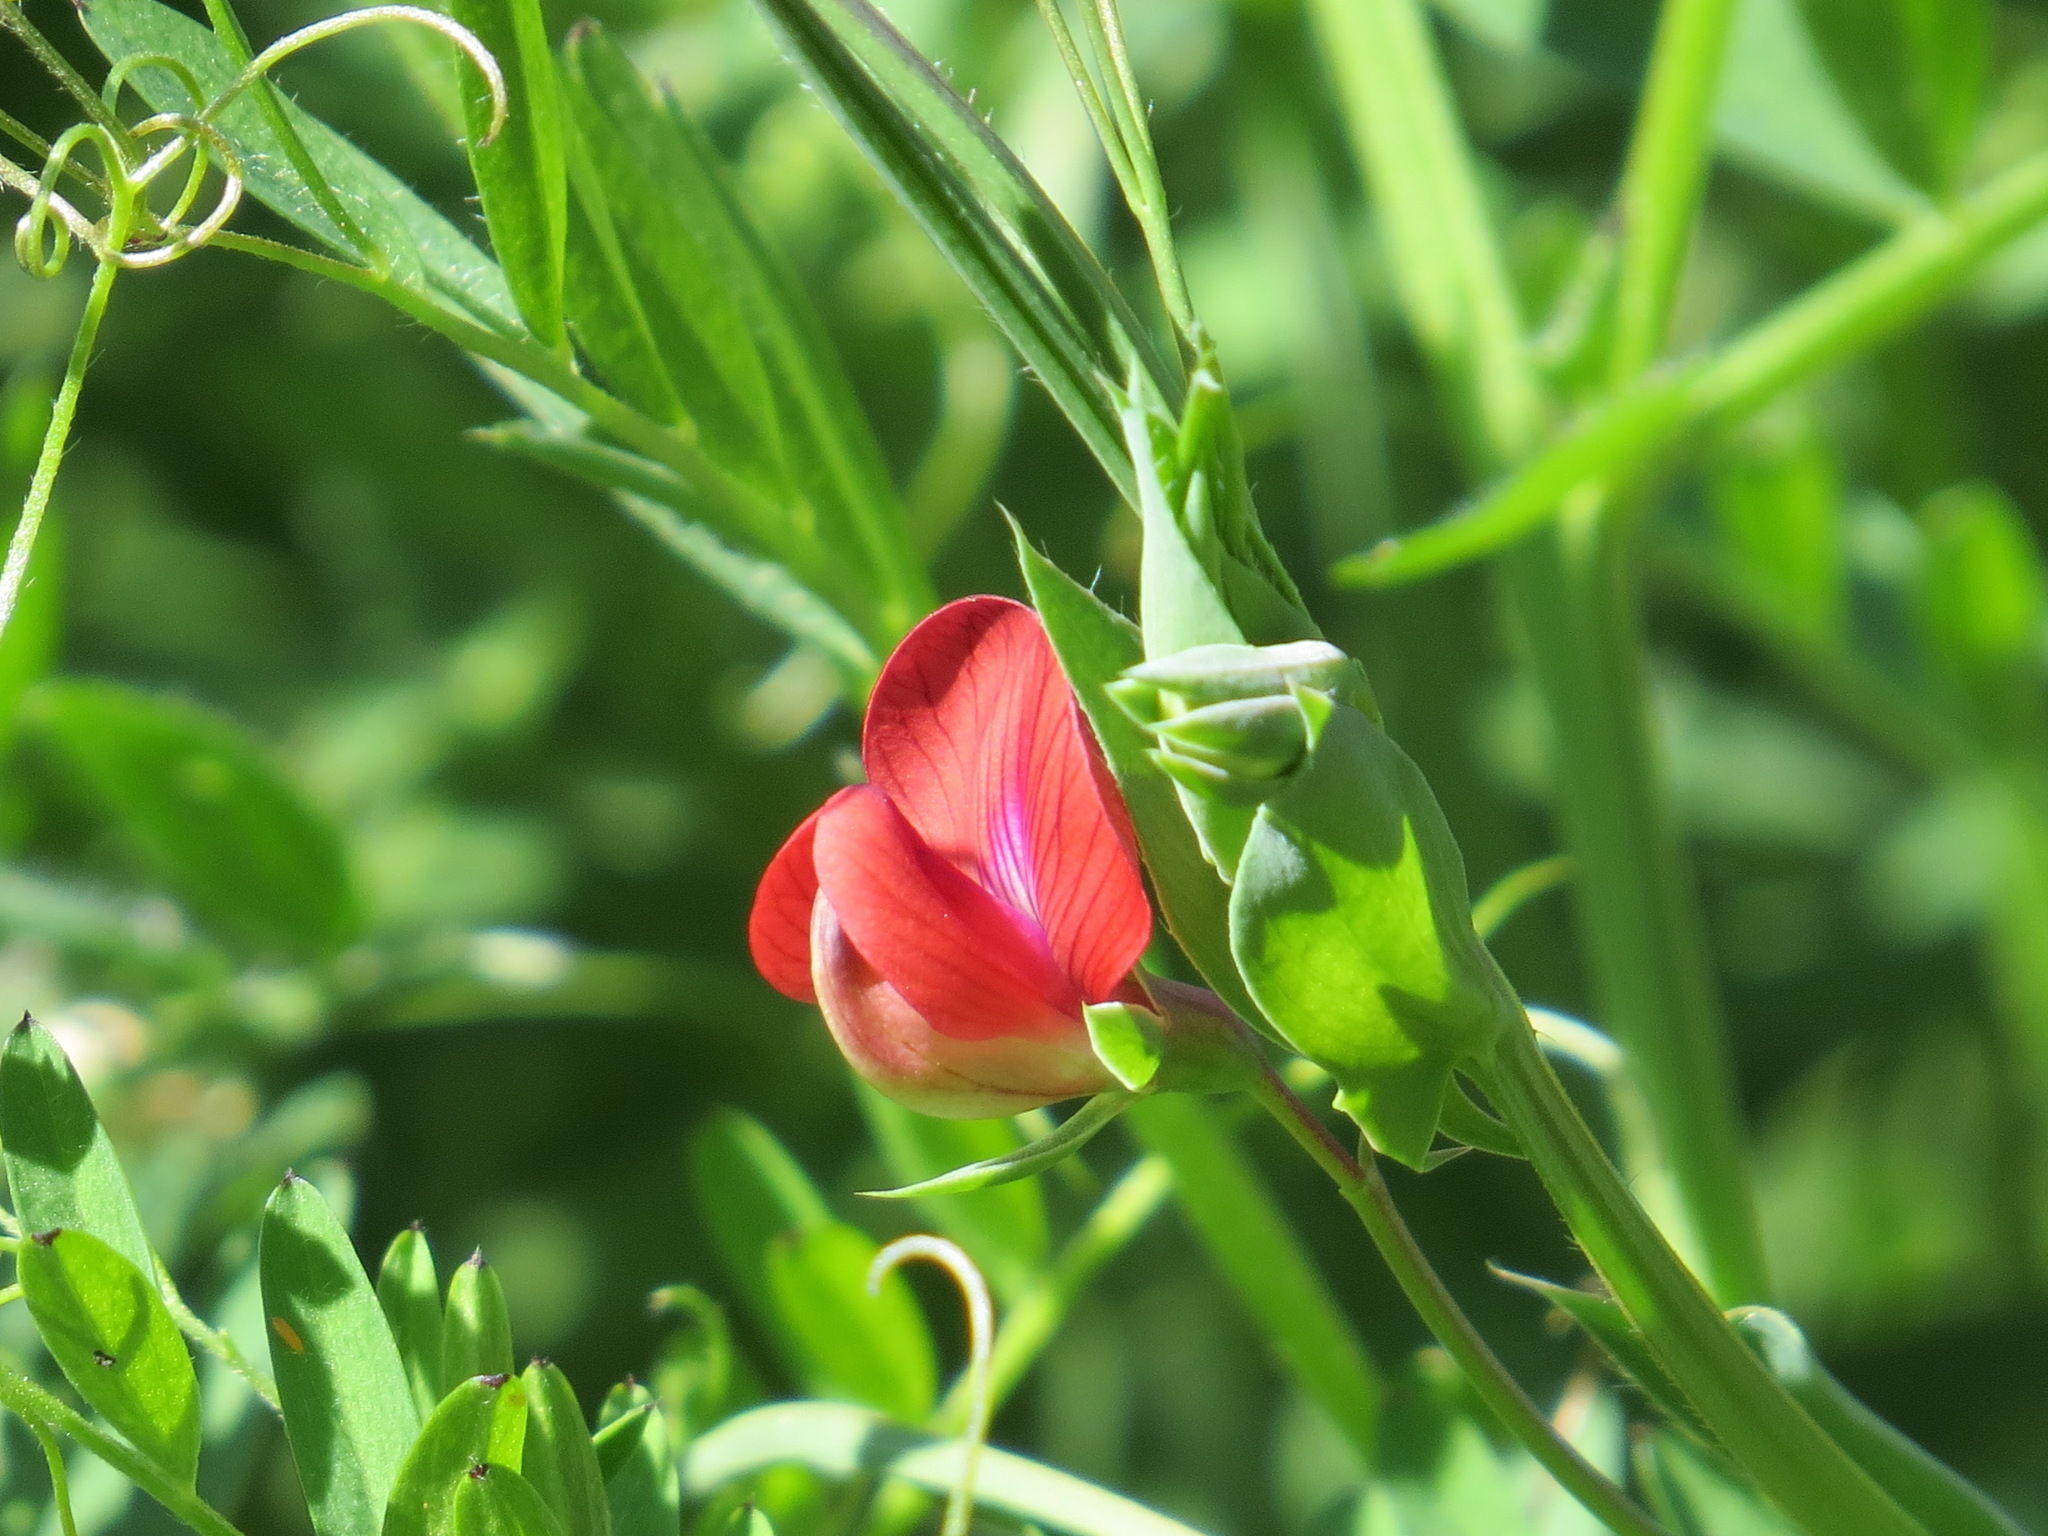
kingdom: Plantae
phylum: Tracheophyta
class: Magnoliopsida
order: Fabales
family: Fabaceae
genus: Lathyrus
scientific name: Lathyrus cicera
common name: Red vetchling
